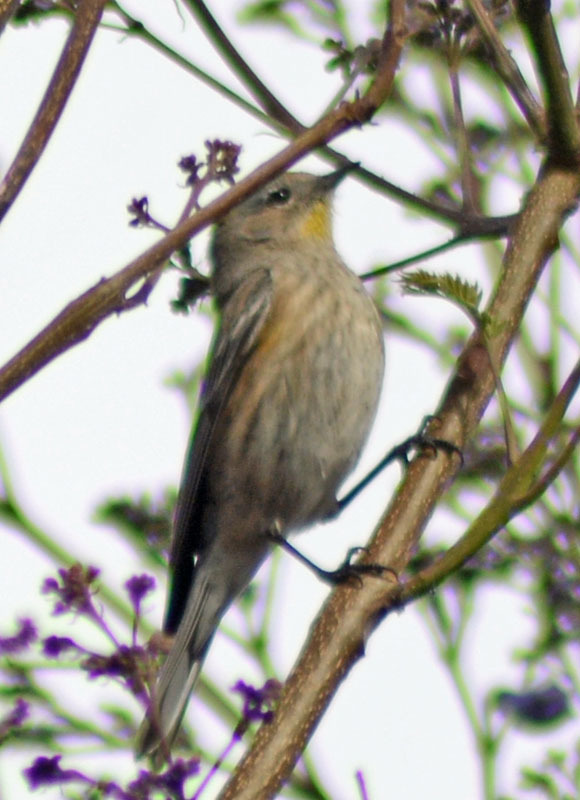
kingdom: Animalia
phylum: Chordata
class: Aves
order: Passeriformes
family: Parulidae
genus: Setophaga
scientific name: Setophaga coronata
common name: Myrtle warbler
